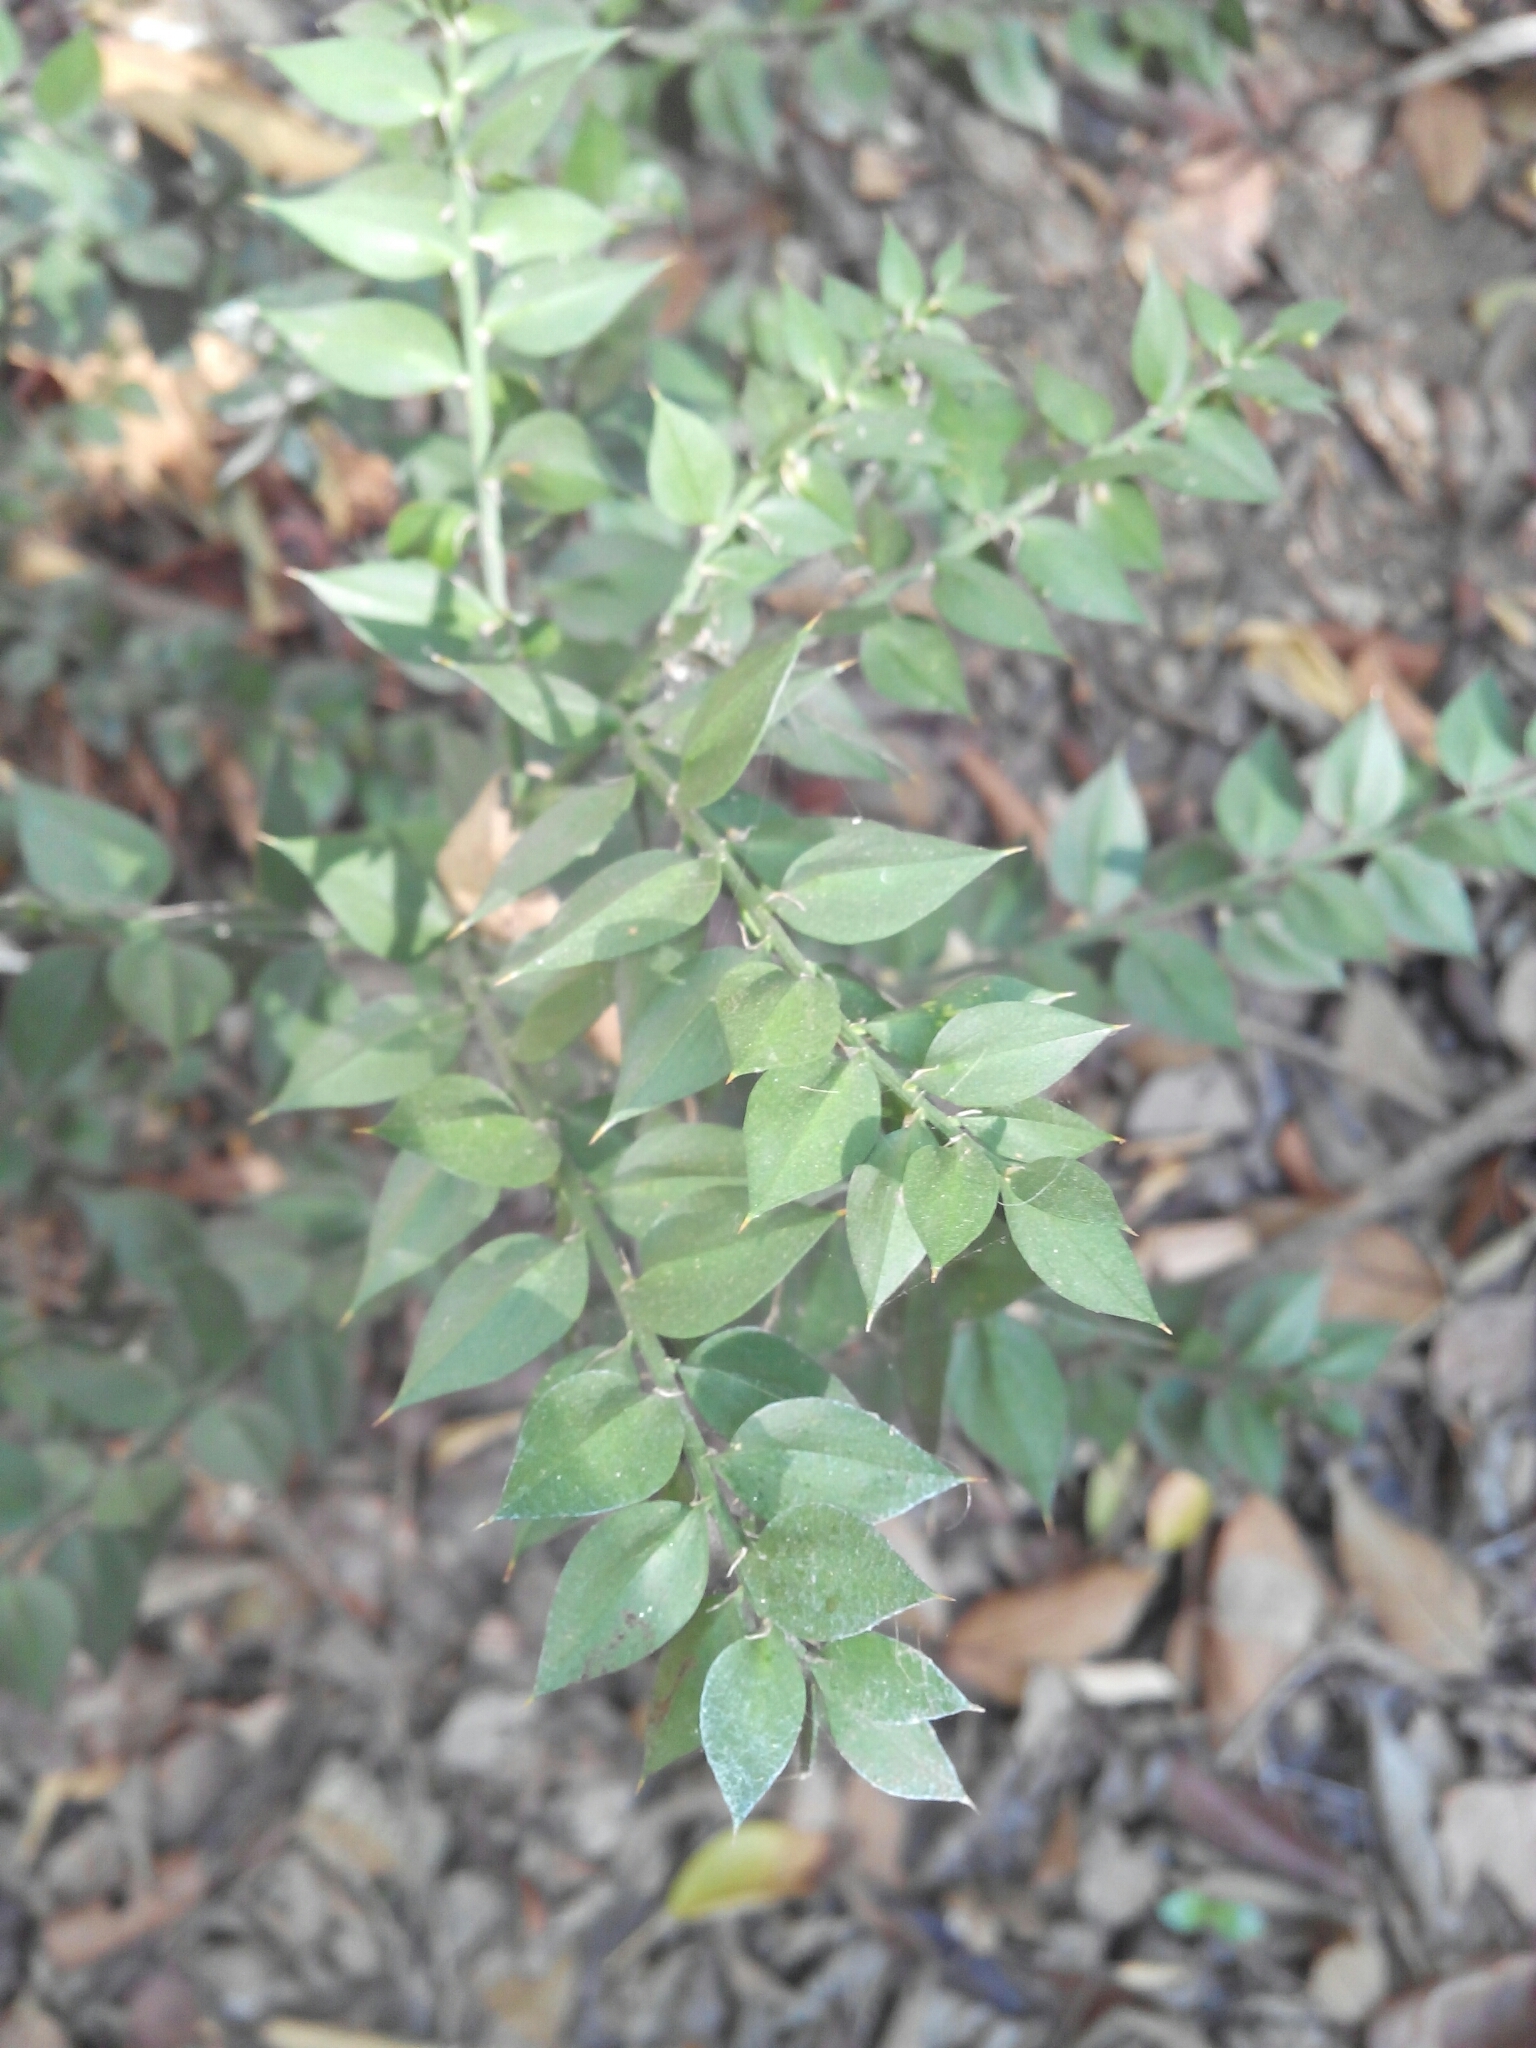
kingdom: Plantae
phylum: Tracheophyta
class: Liliopsida
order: Asparagales
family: Asparagaceae
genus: Ruscus
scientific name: Ruscus aculeatus
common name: Butcher's-broom
